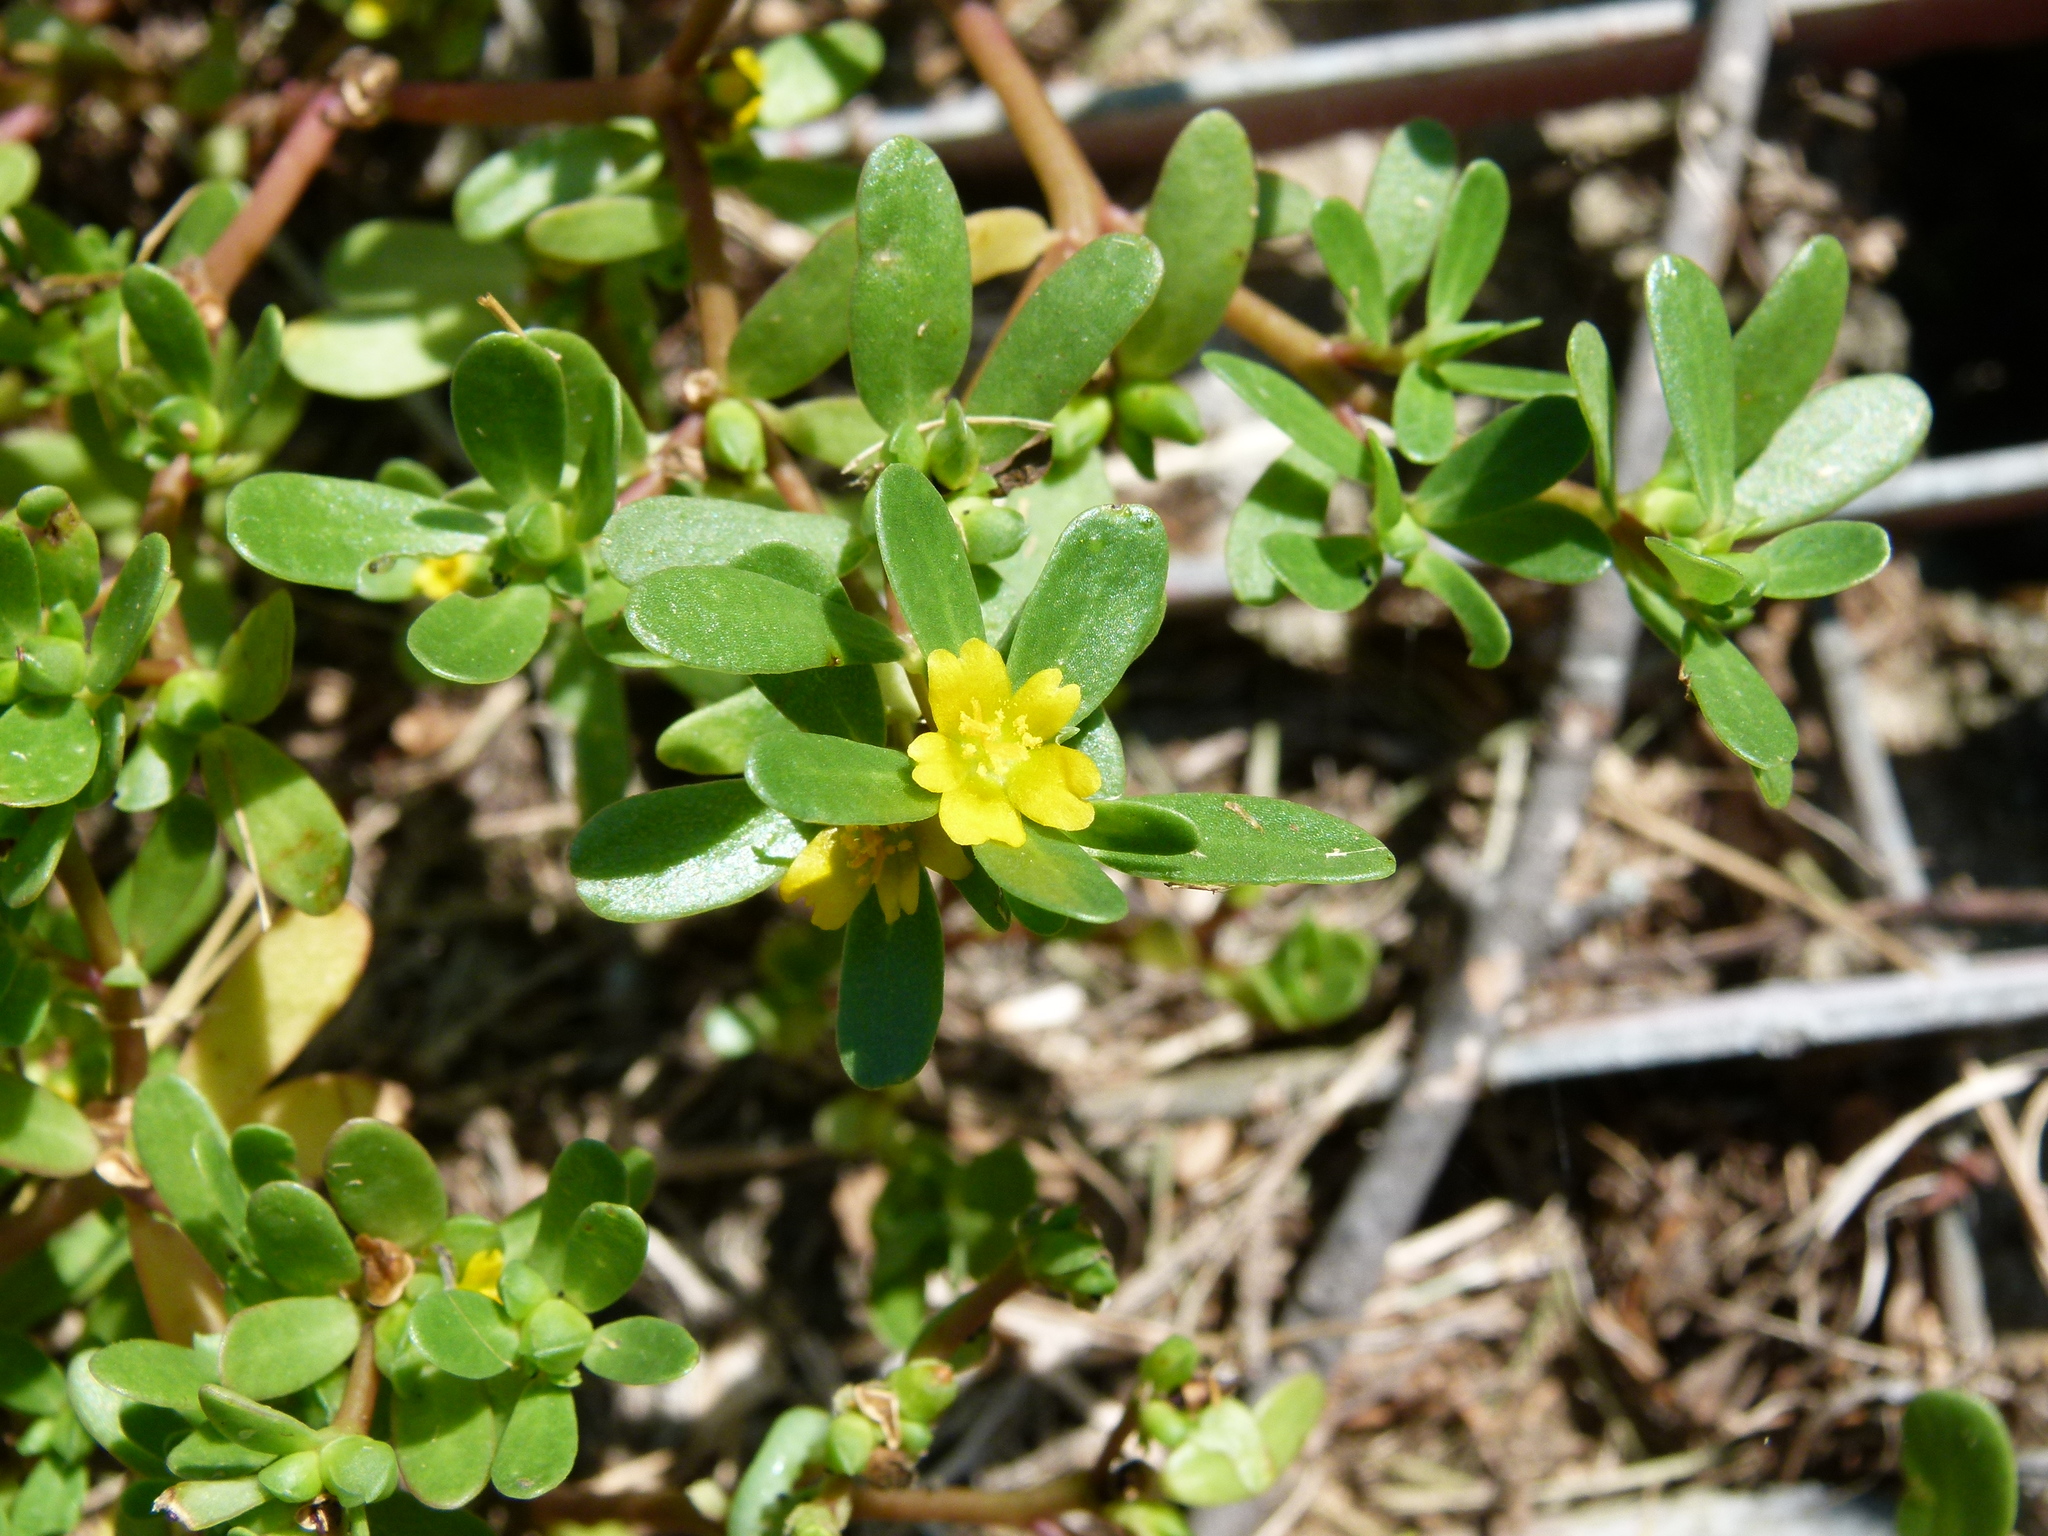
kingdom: Plantae
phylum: Tracheophyta
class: Magnoliopsida
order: Caryophyllales
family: Portulacaceae
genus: Portulaca
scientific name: Portulaca oleracea
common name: Common purslane
